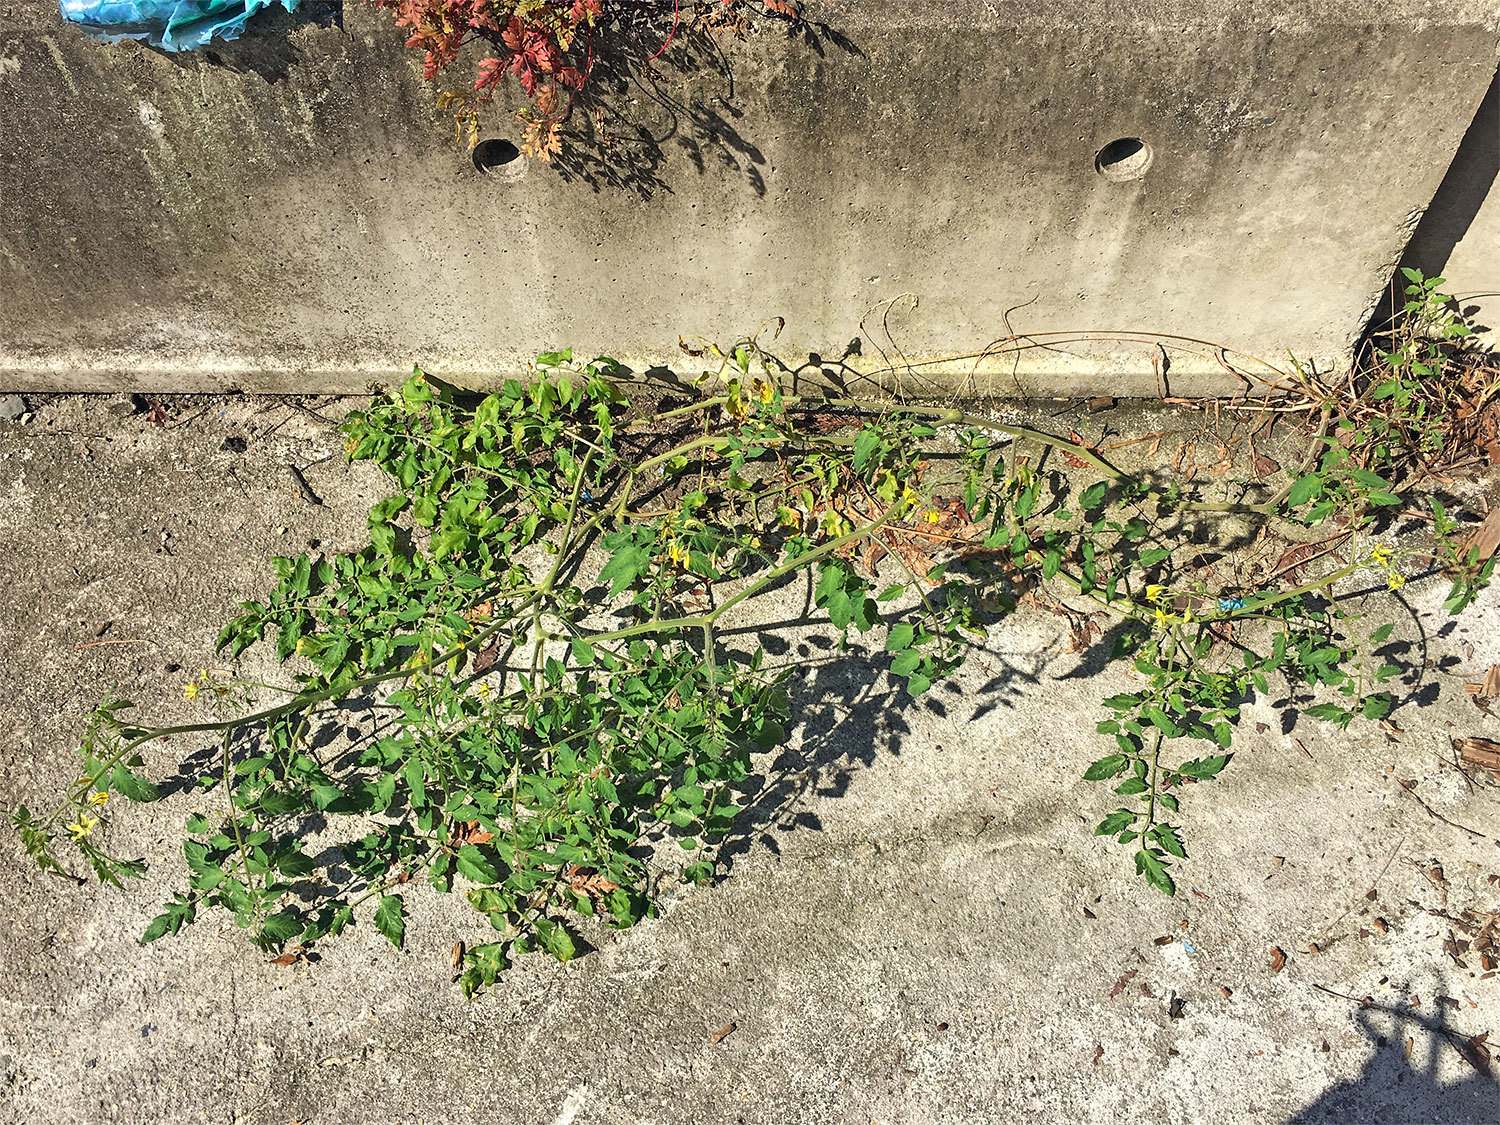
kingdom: Plantae
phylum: Tracheophyta
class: Magnoliopsida
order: Solanales
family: Solanaceae
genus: Solanum
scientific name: Solanum lycopersicum
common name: Garden tomato
